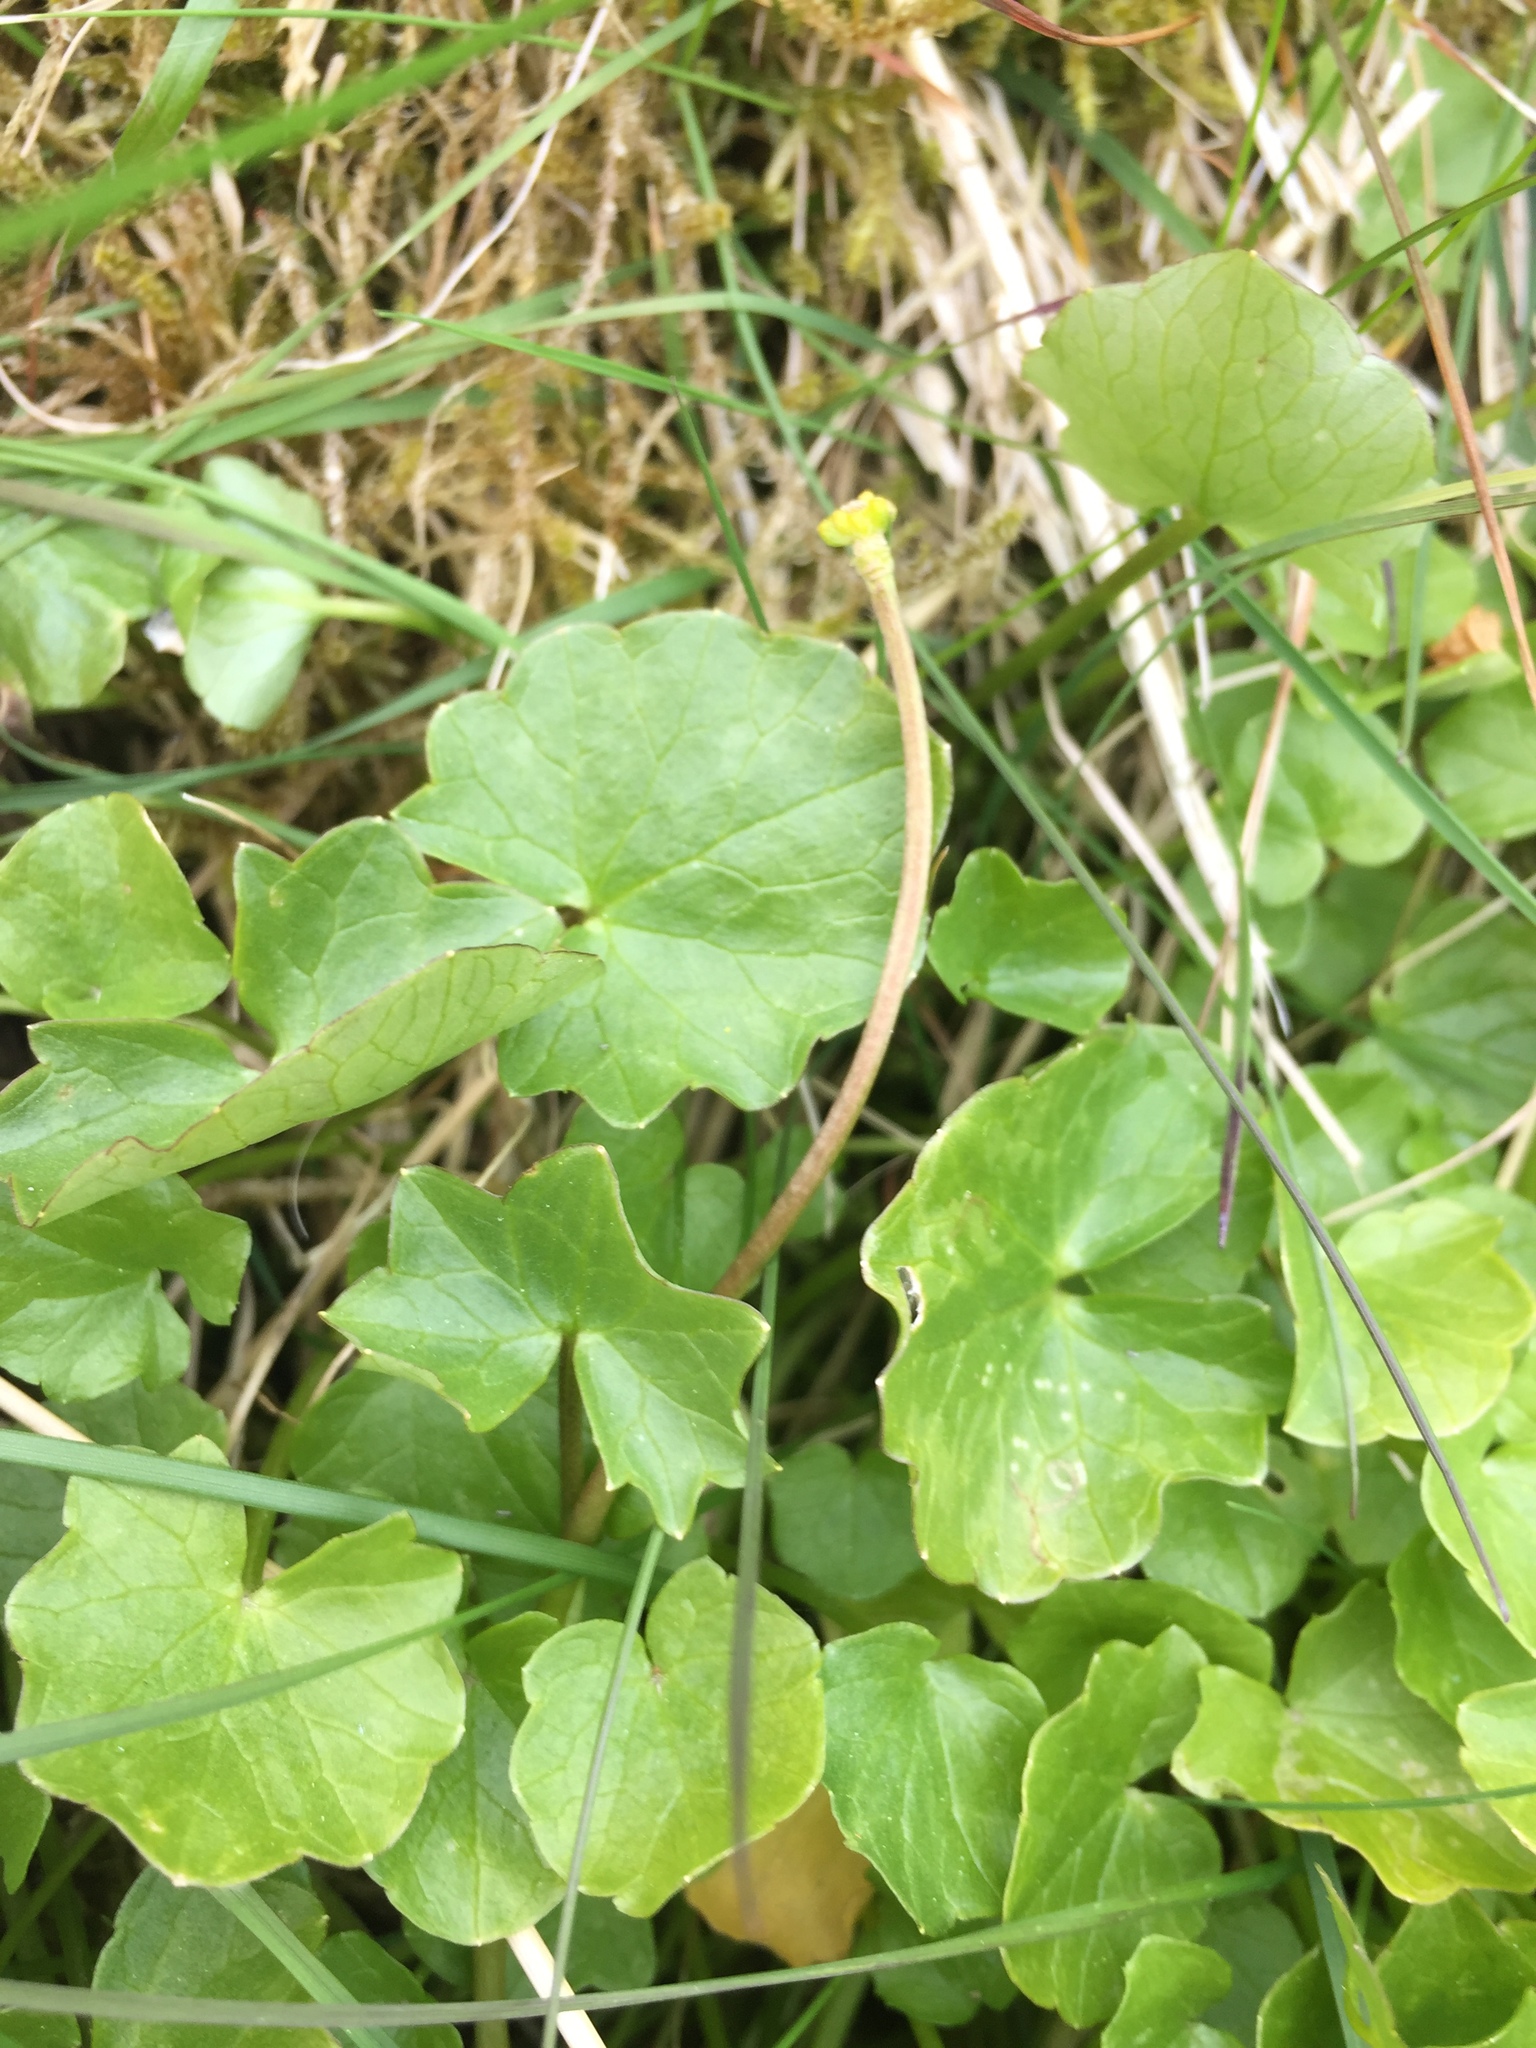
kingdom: Plantae
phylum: Tracheophyta
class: Magnoliopsida
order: Ranunculales
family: Ranunculaceae
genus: Ficaria
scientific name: Ficaria verna
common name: Lesser celandine
